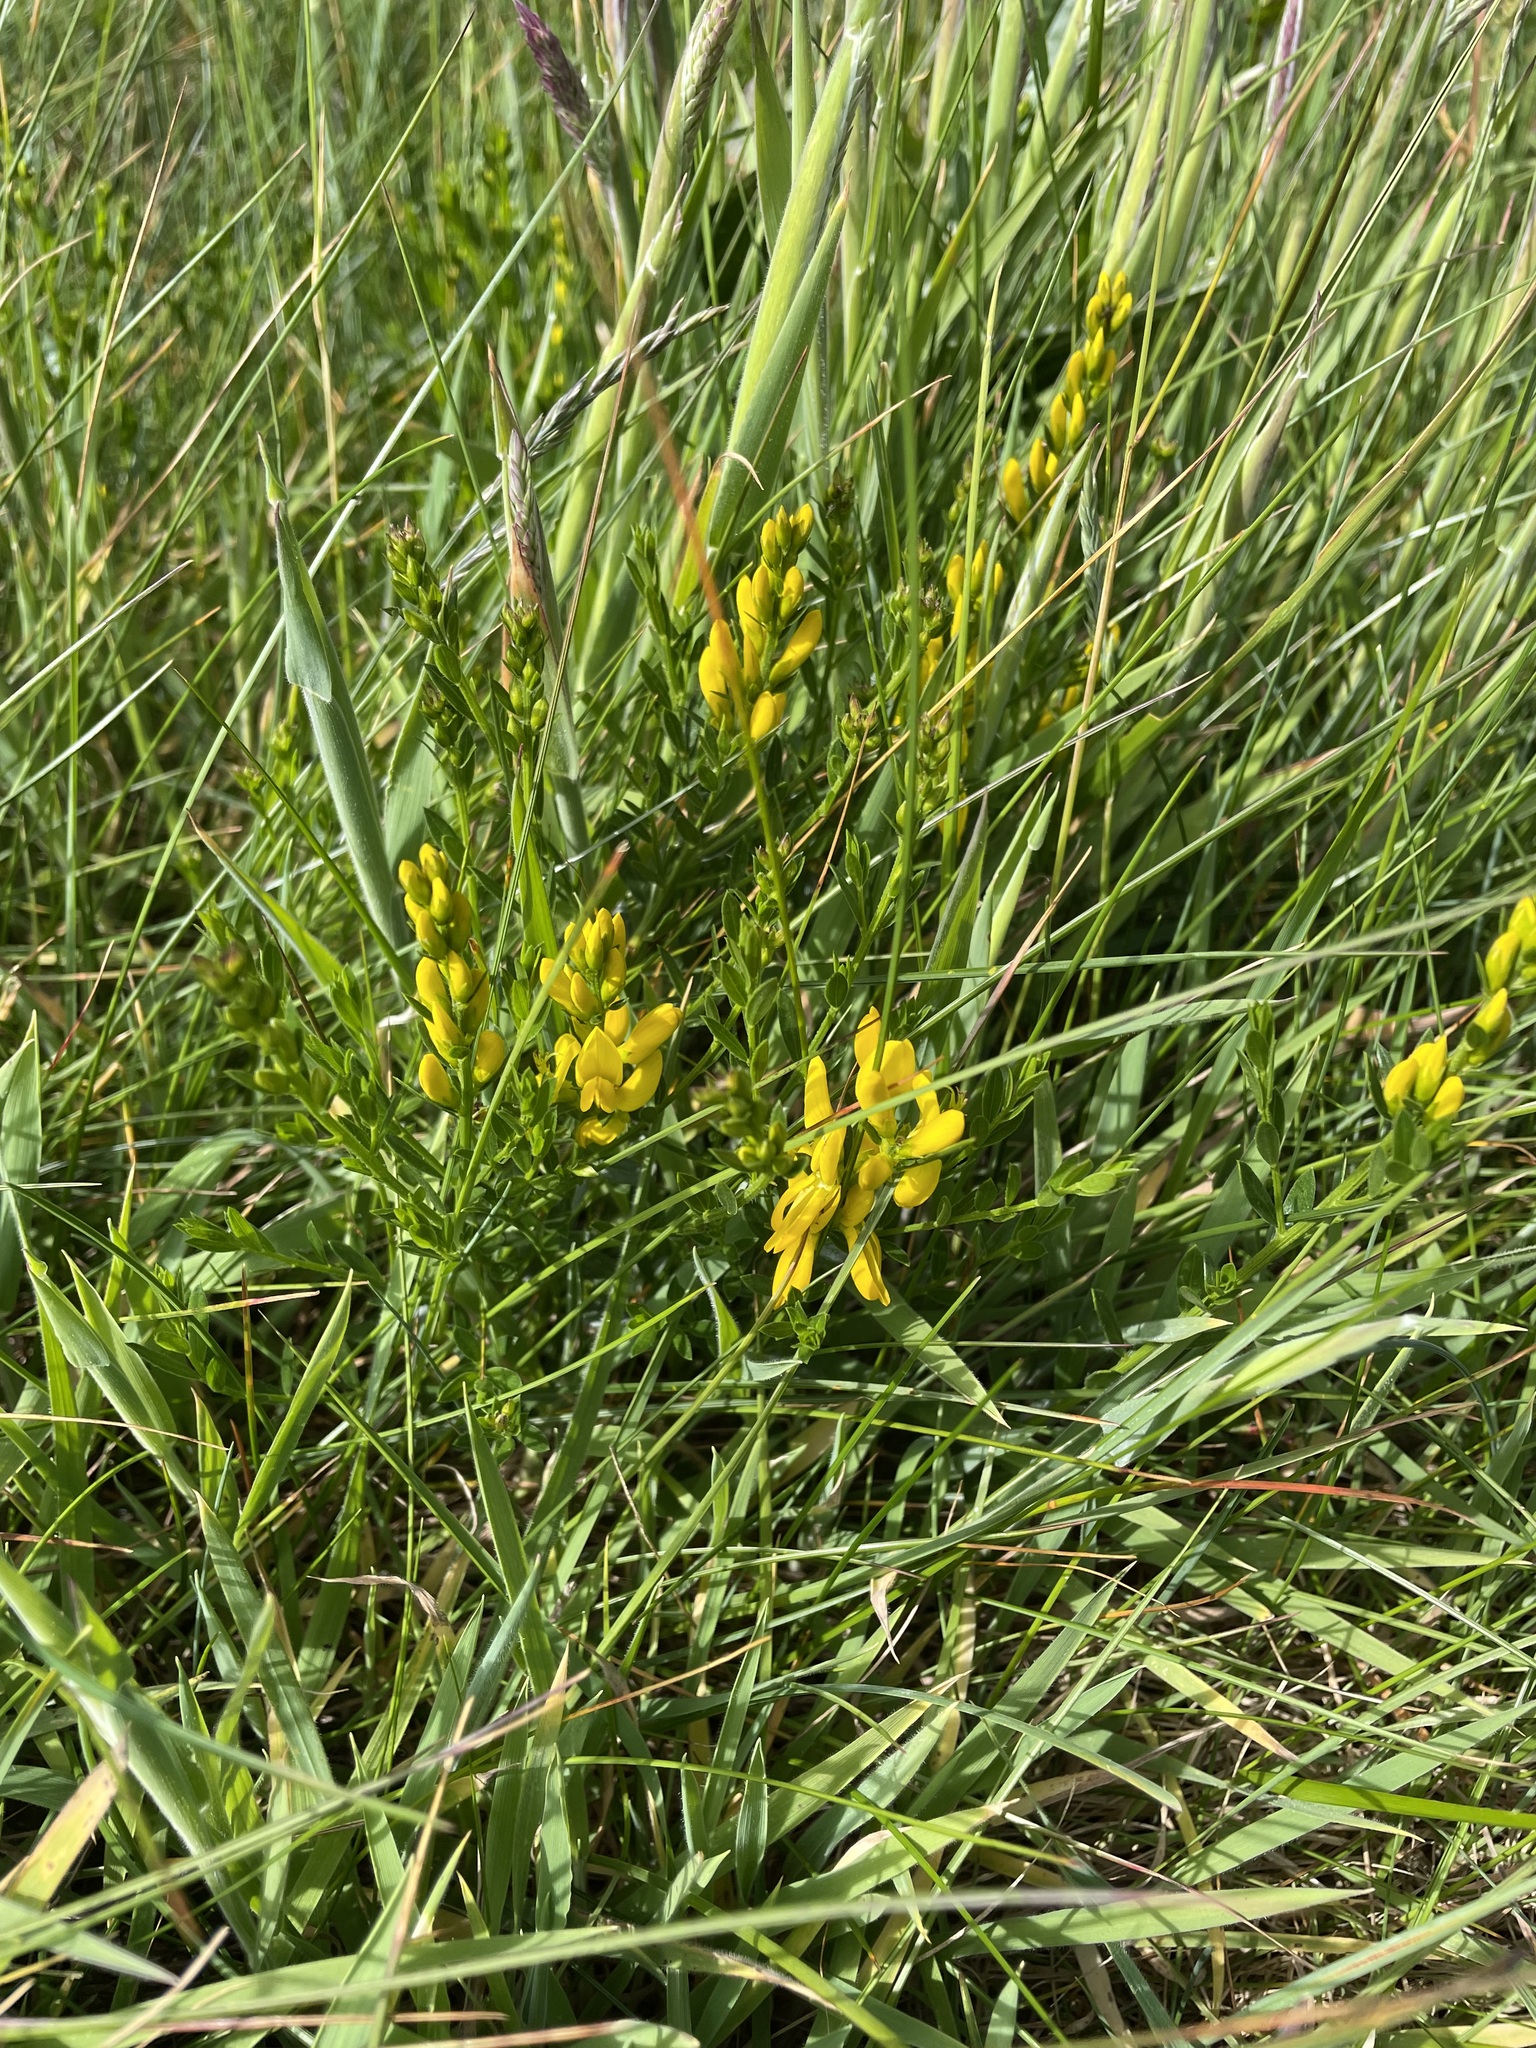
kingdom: Plantae
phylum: Tracheophyta
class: Magnoliopsida
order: Fabales
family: Fabaceae
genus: Genista
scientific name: Genista tinctoria
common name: Dyer's greenweed
